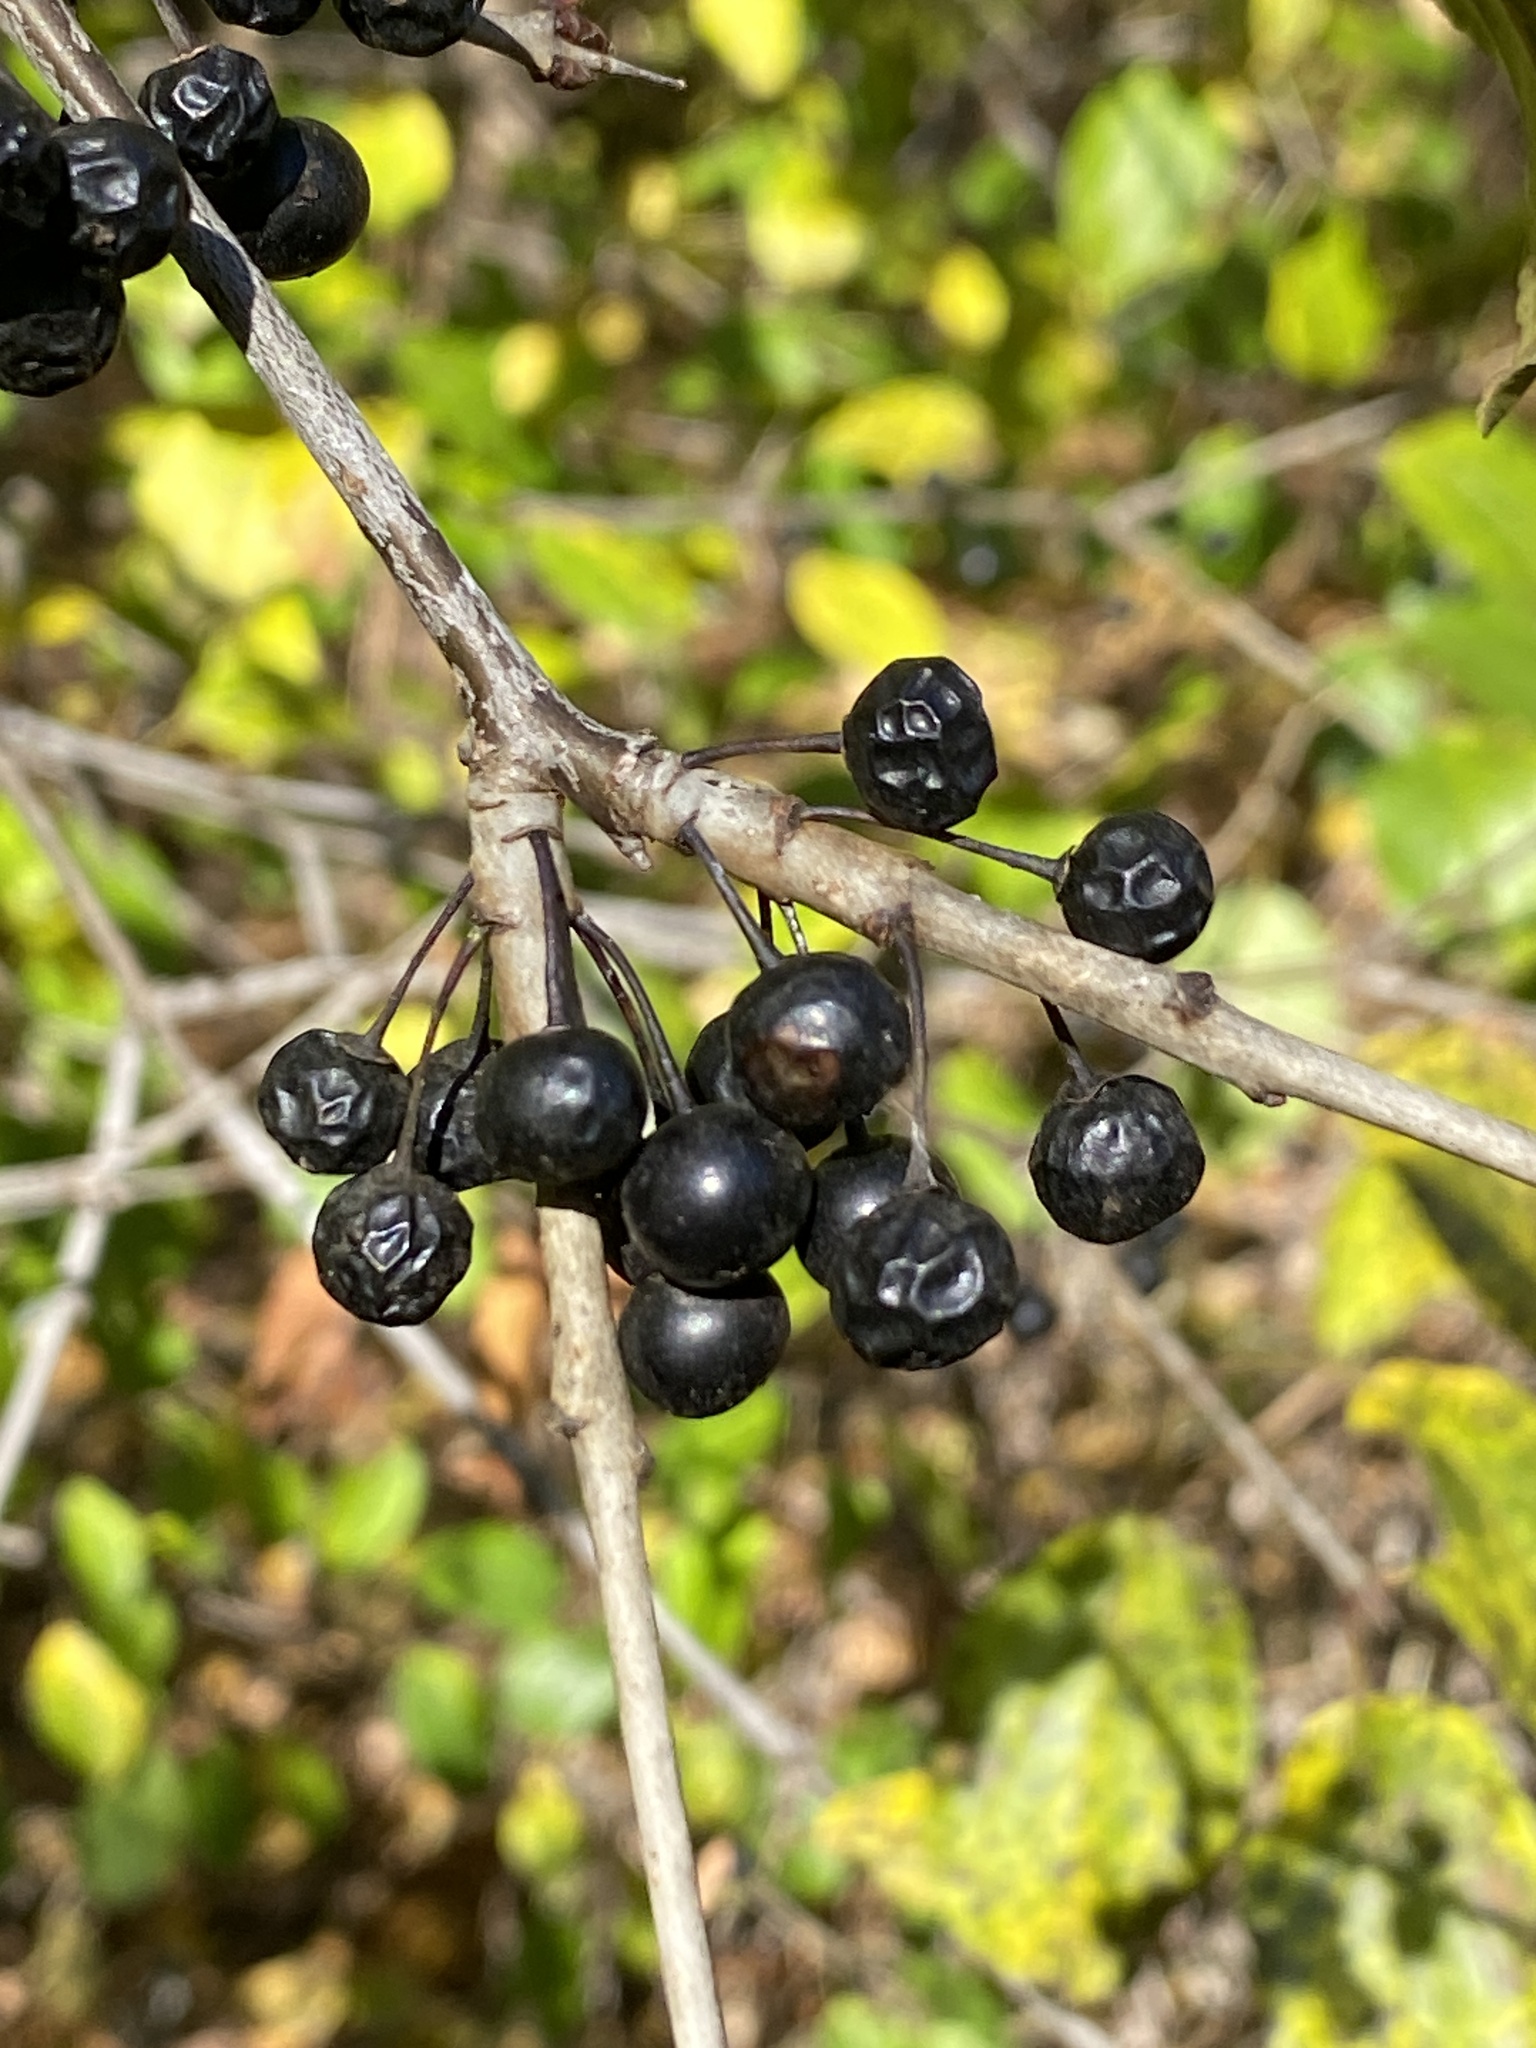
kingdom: Plantae
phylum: Tracheophyta
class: Magnoliopsida
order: Rosales
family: Rhamnaceae
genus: Rhamnus
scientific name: Rhamnus cathartica
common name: Common buckthorn
